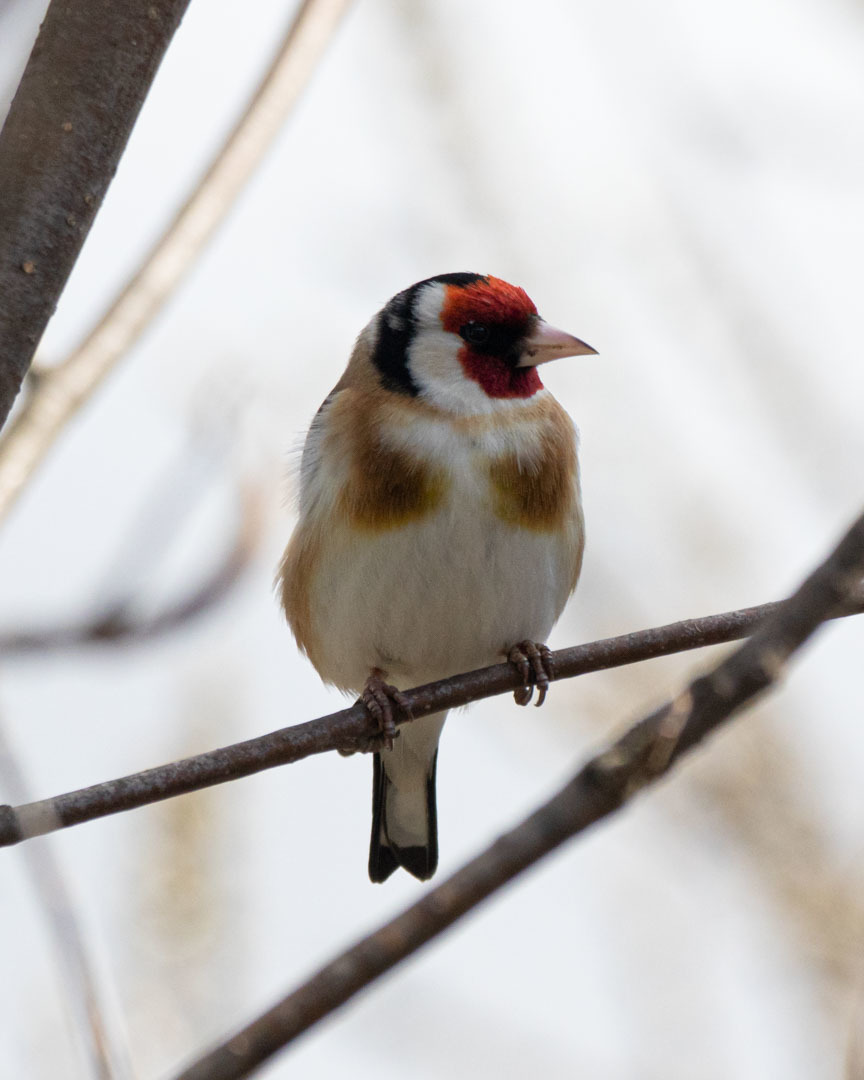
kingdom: Animalia
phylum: Chordata
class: Aves
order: Passeriformes
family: Fringillidae
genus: Carduelis
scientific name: Carduelis carduelis
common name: European goldfinch
